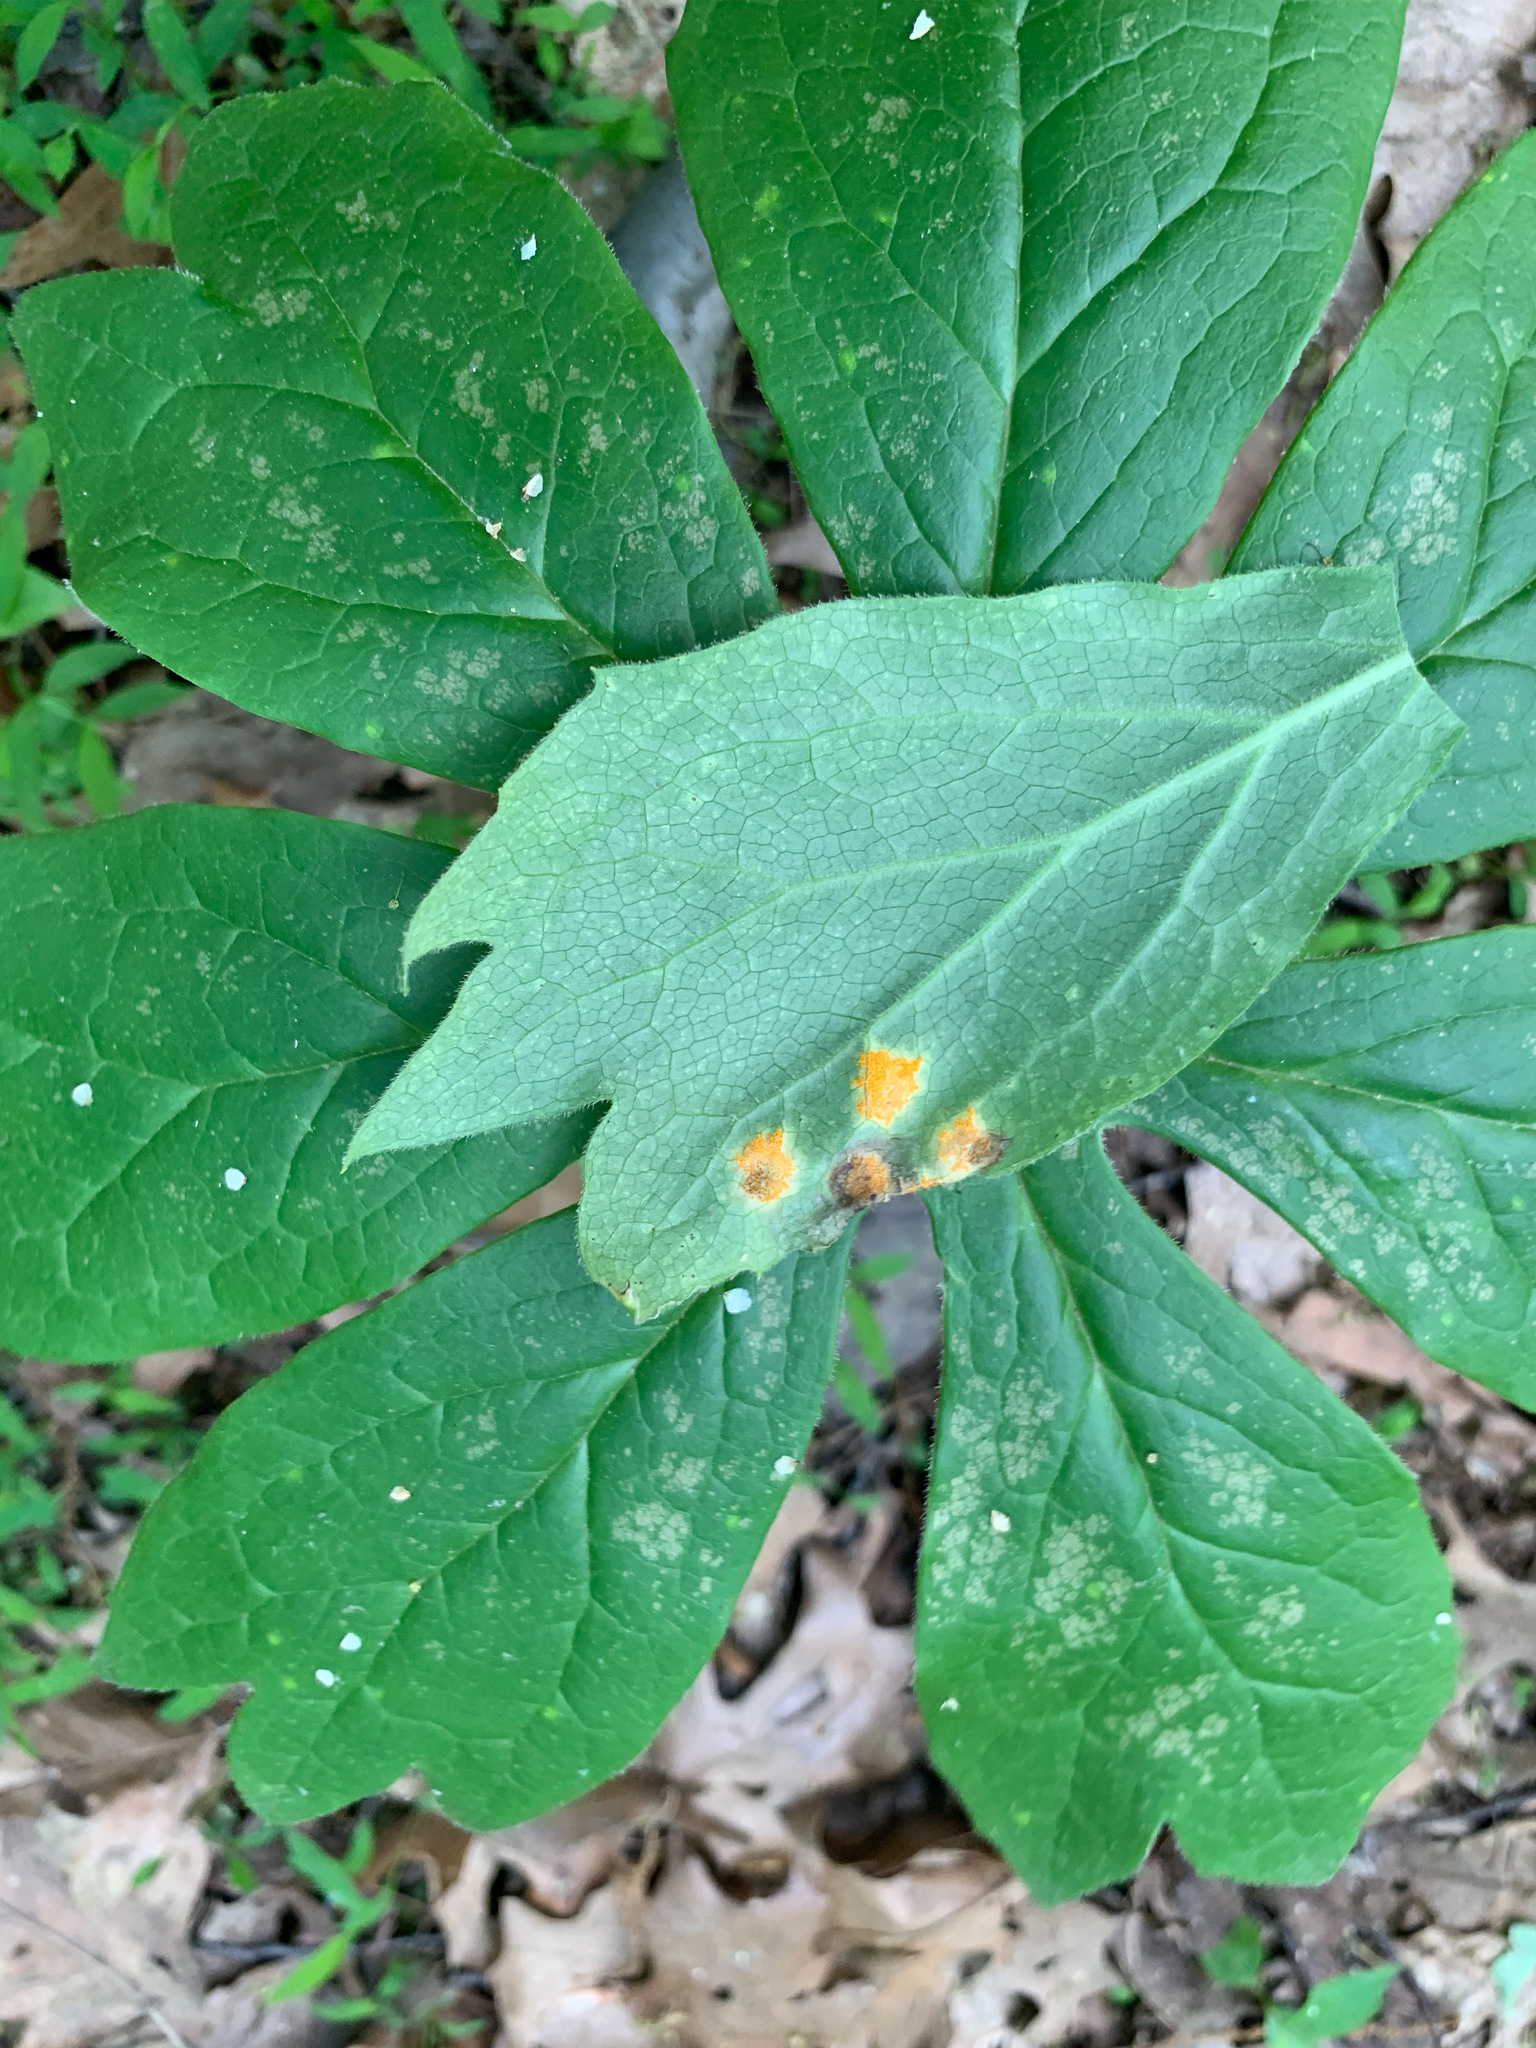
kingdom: Fungi
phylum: Basidiomycota
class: Pucciniomycetes
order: Pucciniales
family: Pucciniaceae
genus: Puccinia
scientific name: Puccinia podophylli
